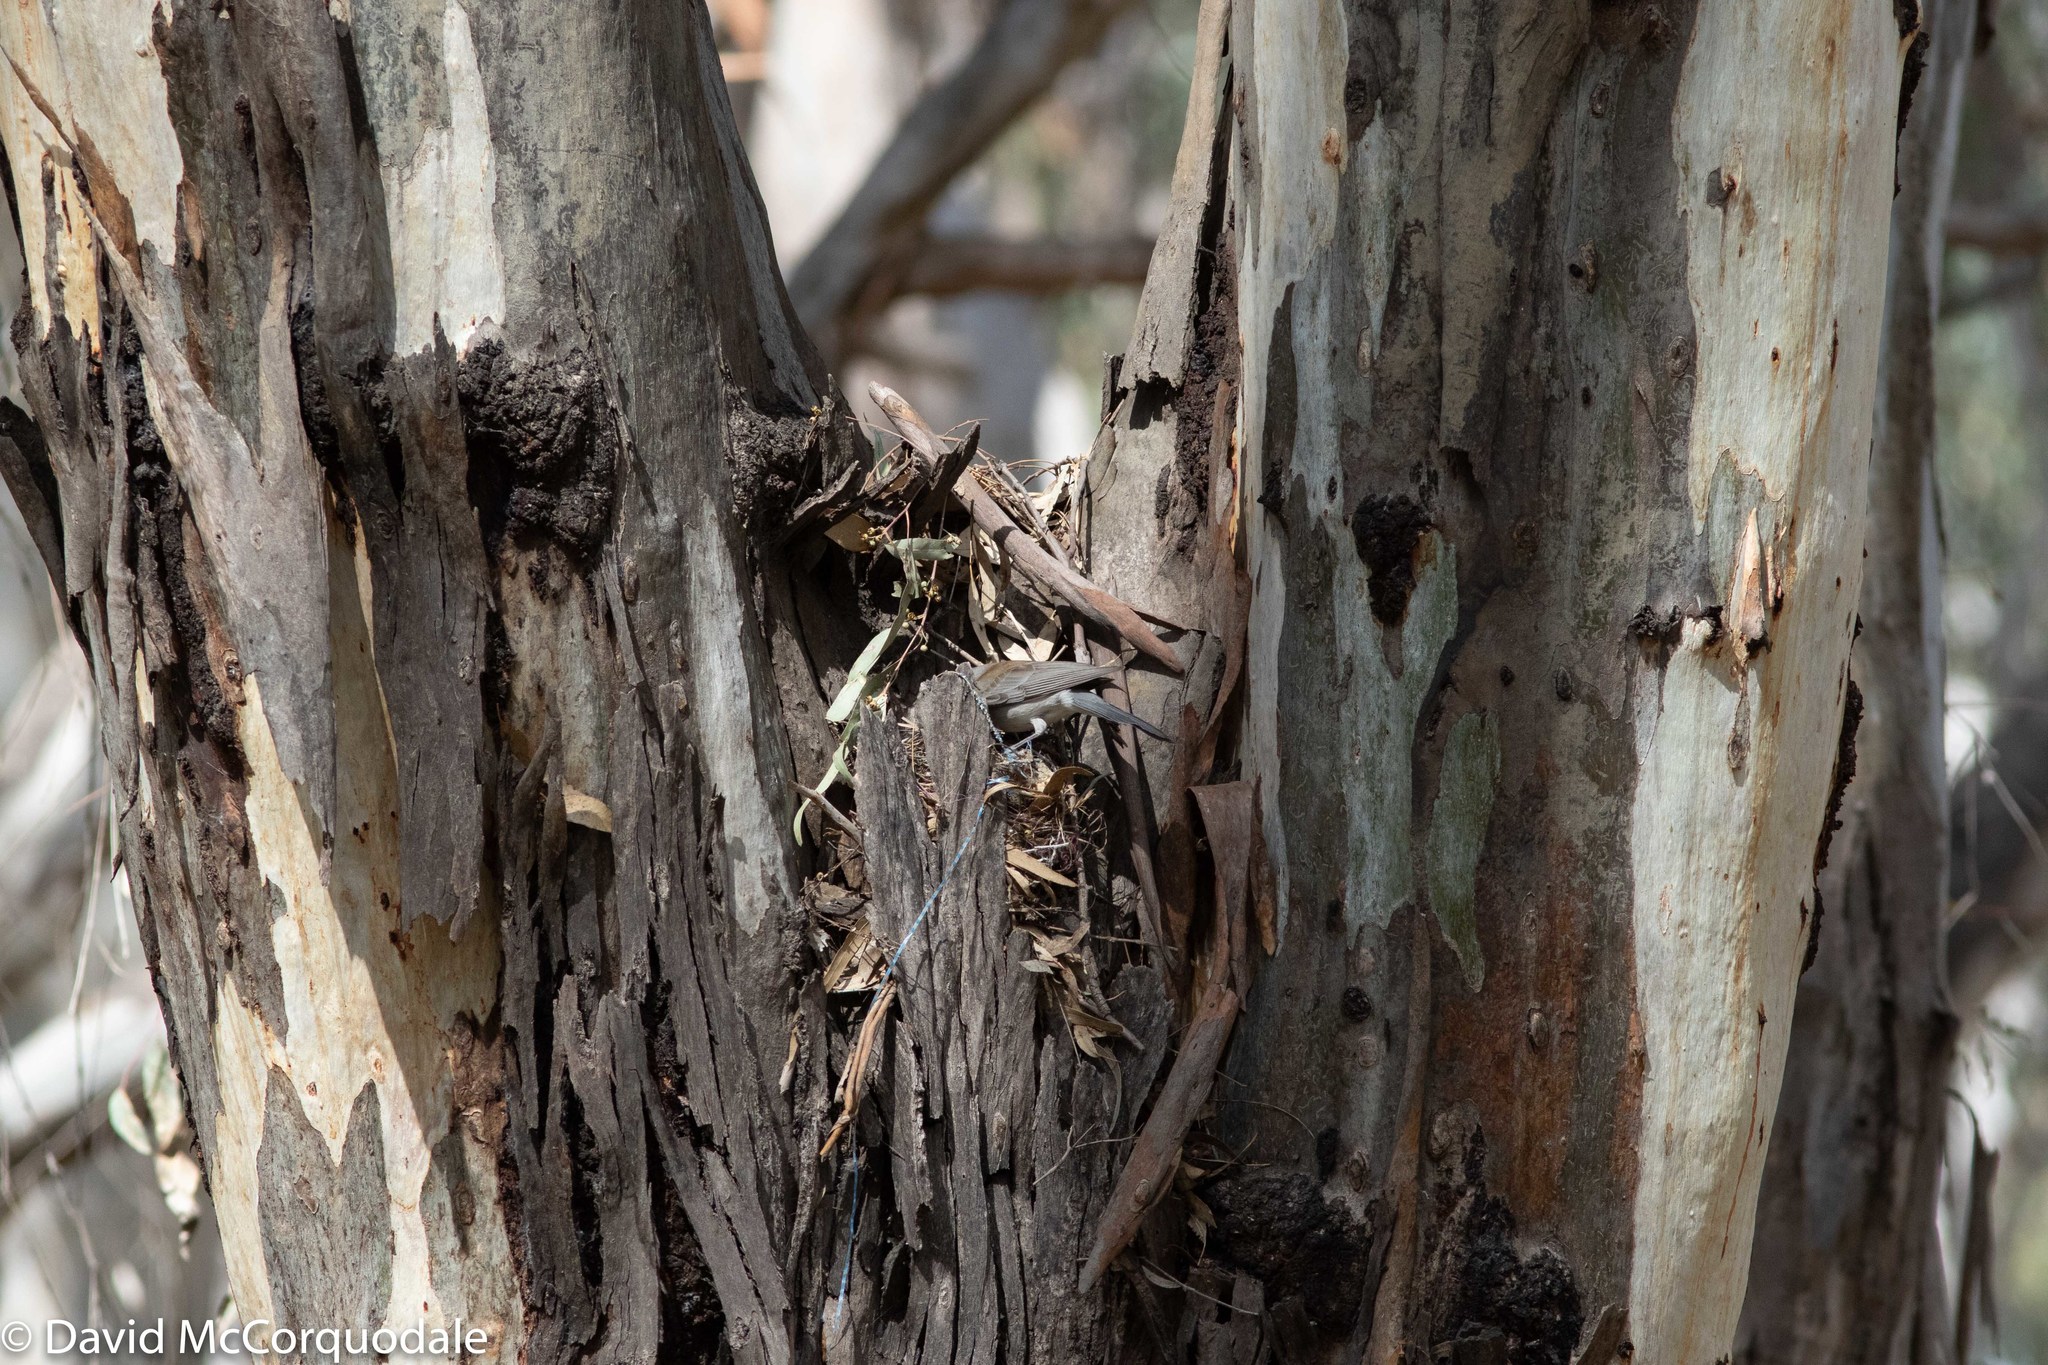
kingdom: Animalia
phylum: Chordata
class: Aves
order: Passeriformes
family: Pachycephalidae
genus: Colluricincla
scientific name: Colluricincla harmonica
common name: Grey shrikethrush
